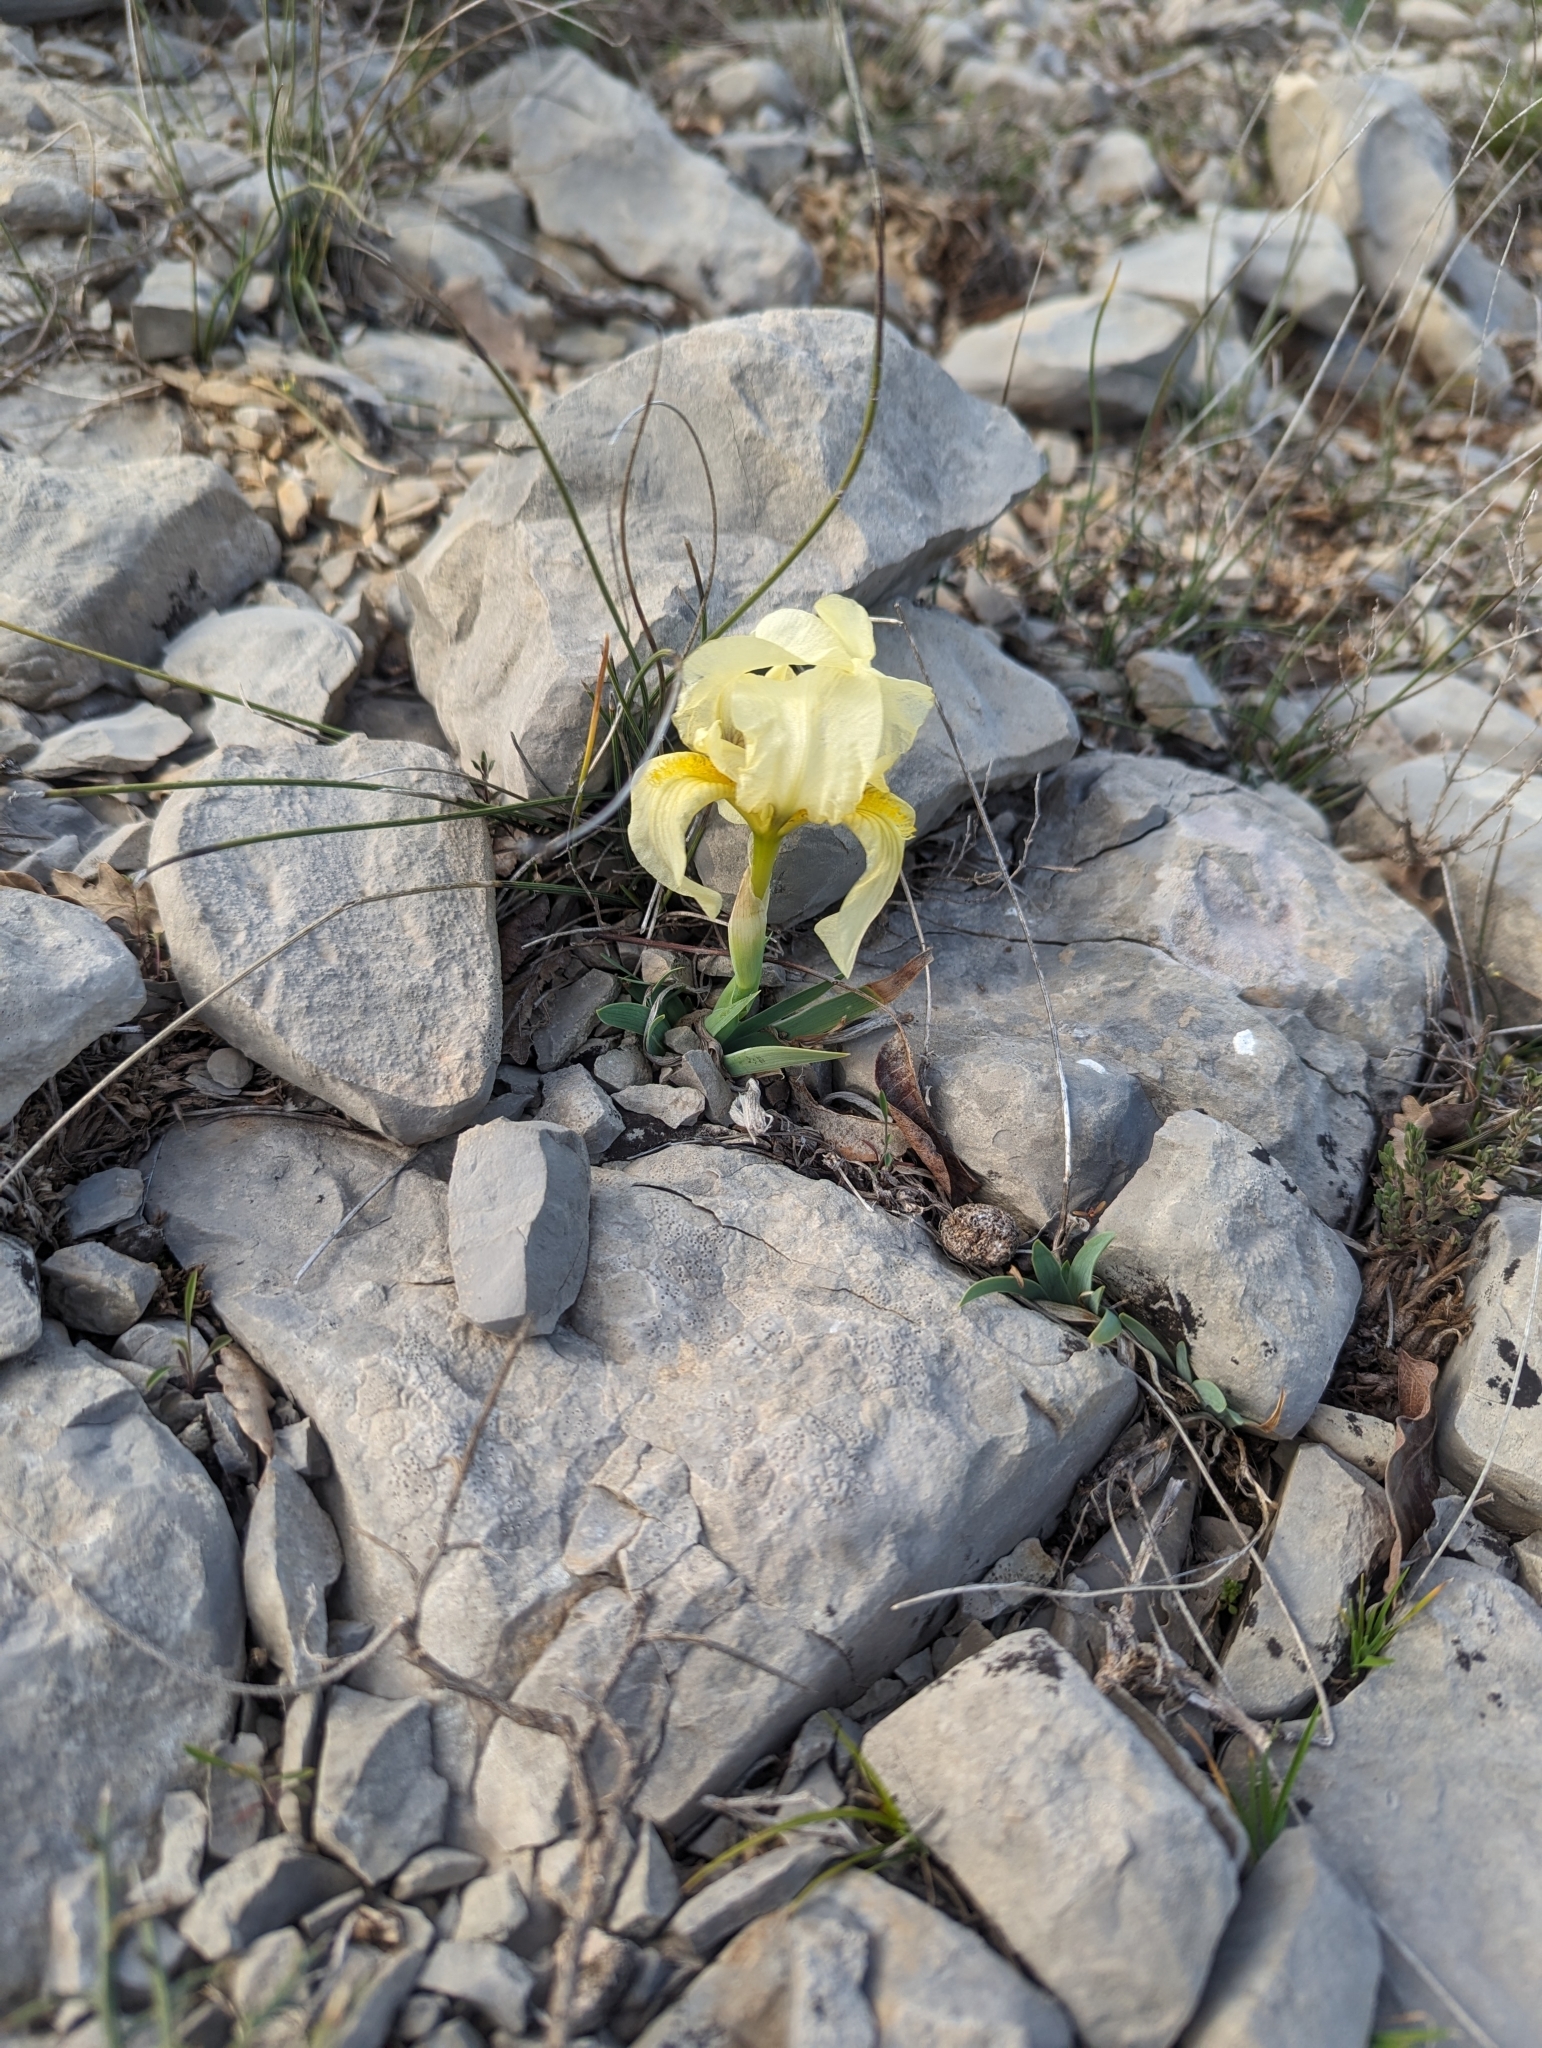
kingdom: Plantae
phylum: Tracheophyta
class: Liliopsida
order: Asparagales
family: Iridaceae
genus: Iris
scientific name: Iris lutescens
